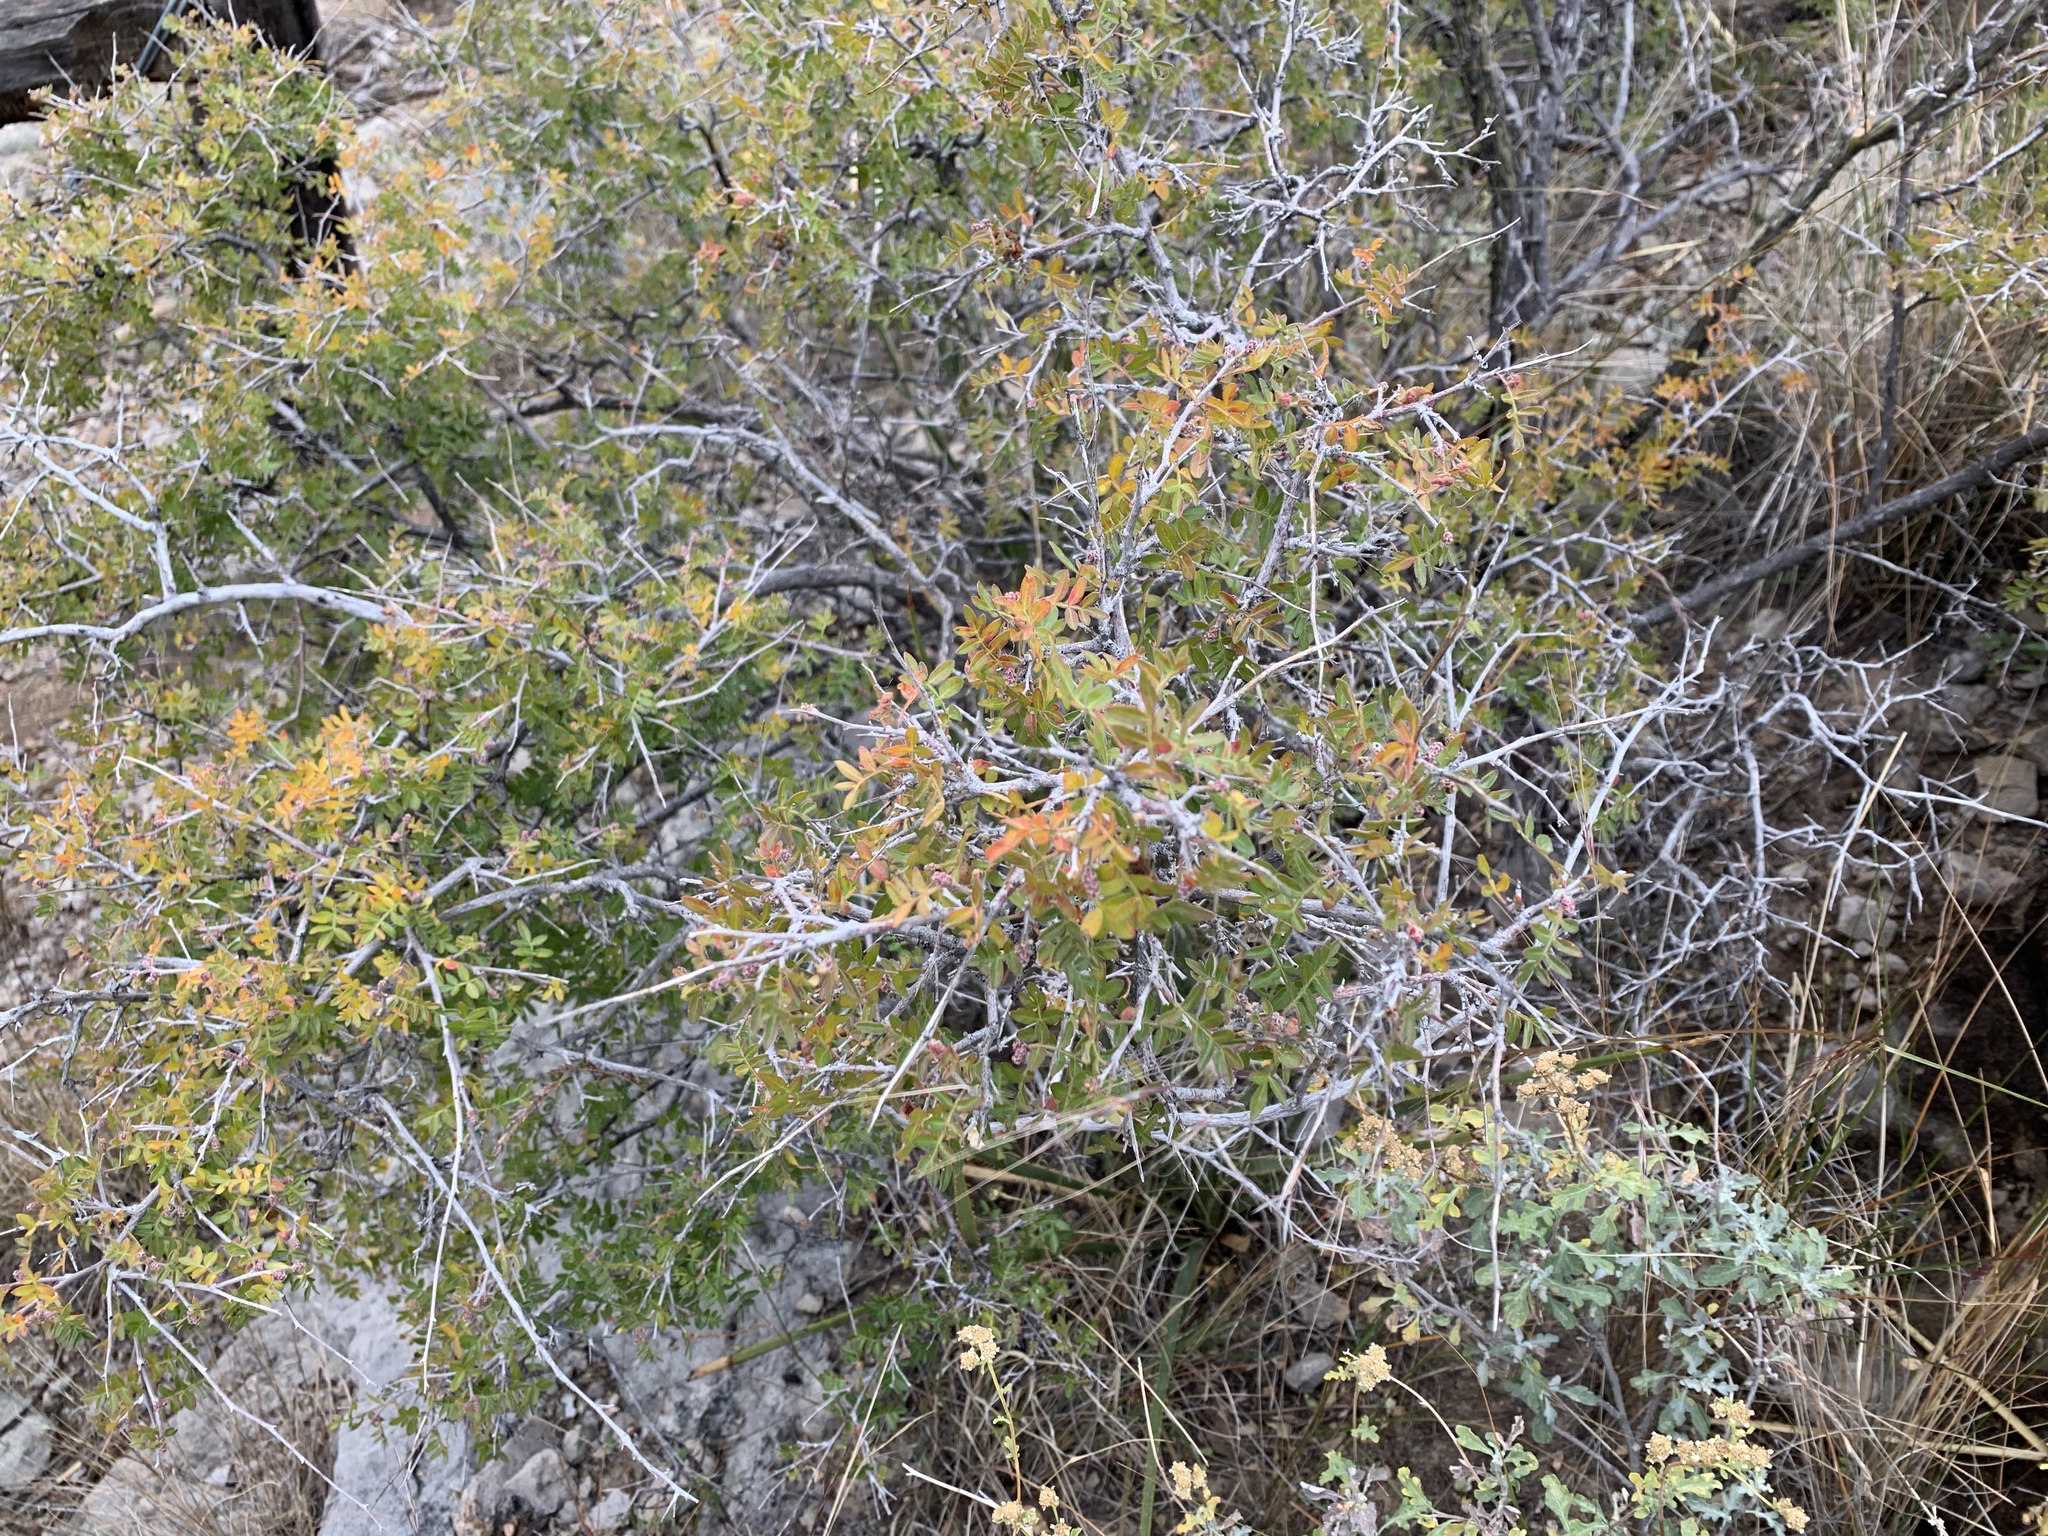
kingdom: Plantae
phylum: Tracheophyta
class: Magnoliopsida
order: Sapindales
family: Anacardiaceae
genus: Rhus
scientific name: Rhus microphylla
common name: Desert sumac
